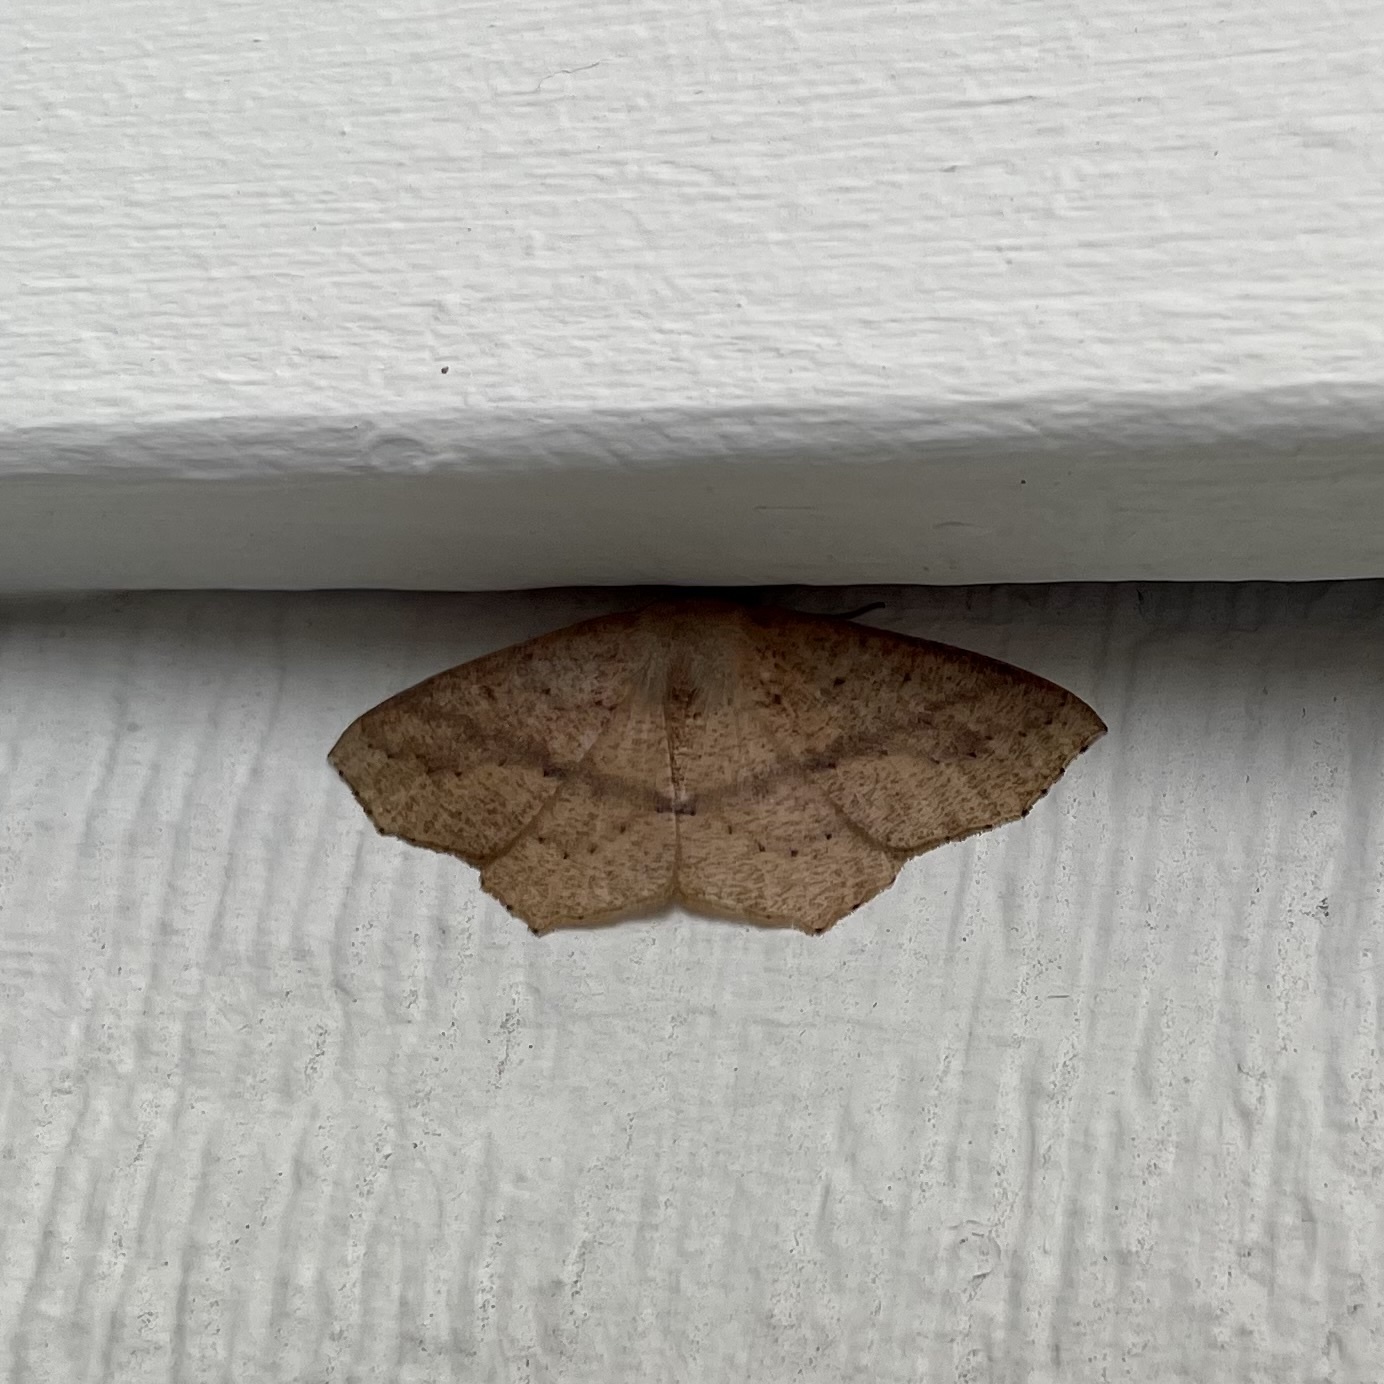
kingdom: Animalia
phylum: Arthropoda
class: Insecta
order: Lepidoptera
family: Geometridae
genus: Sabulodes
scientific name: Sabulodes aegrotata
